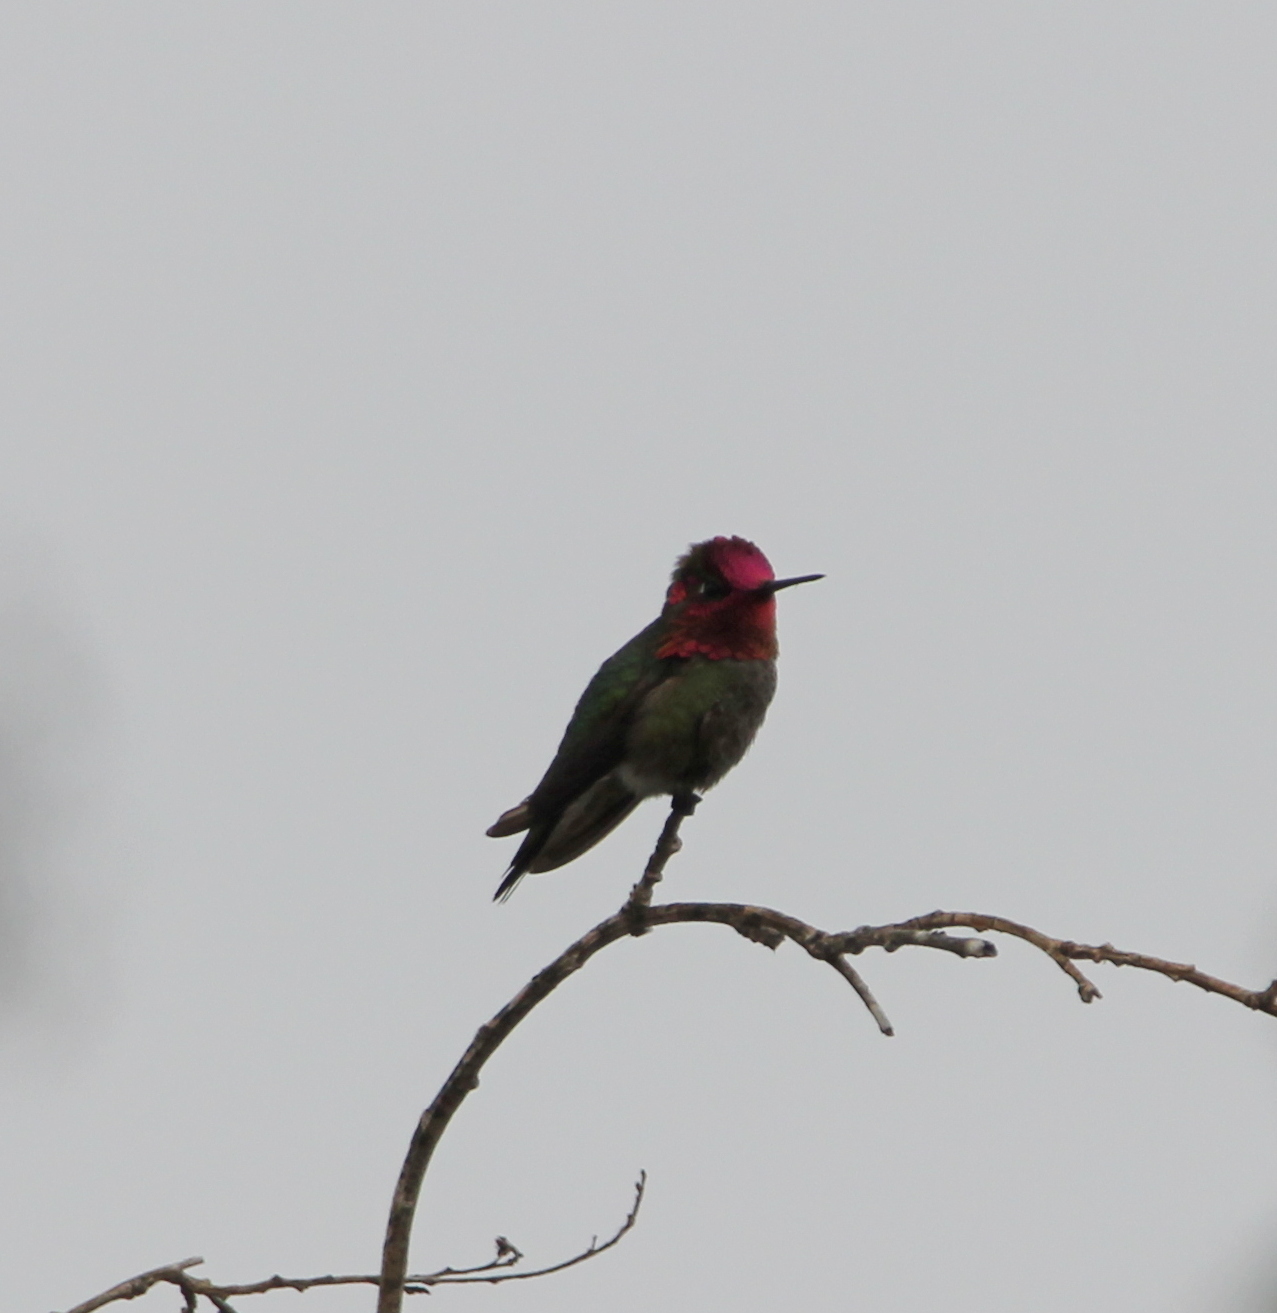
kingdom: Animalia
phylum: Chordata
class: Aves
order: Apodiformes
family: Trochilidae
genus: Calypte
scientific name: Calypte anna
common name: Anna's hummingbird
